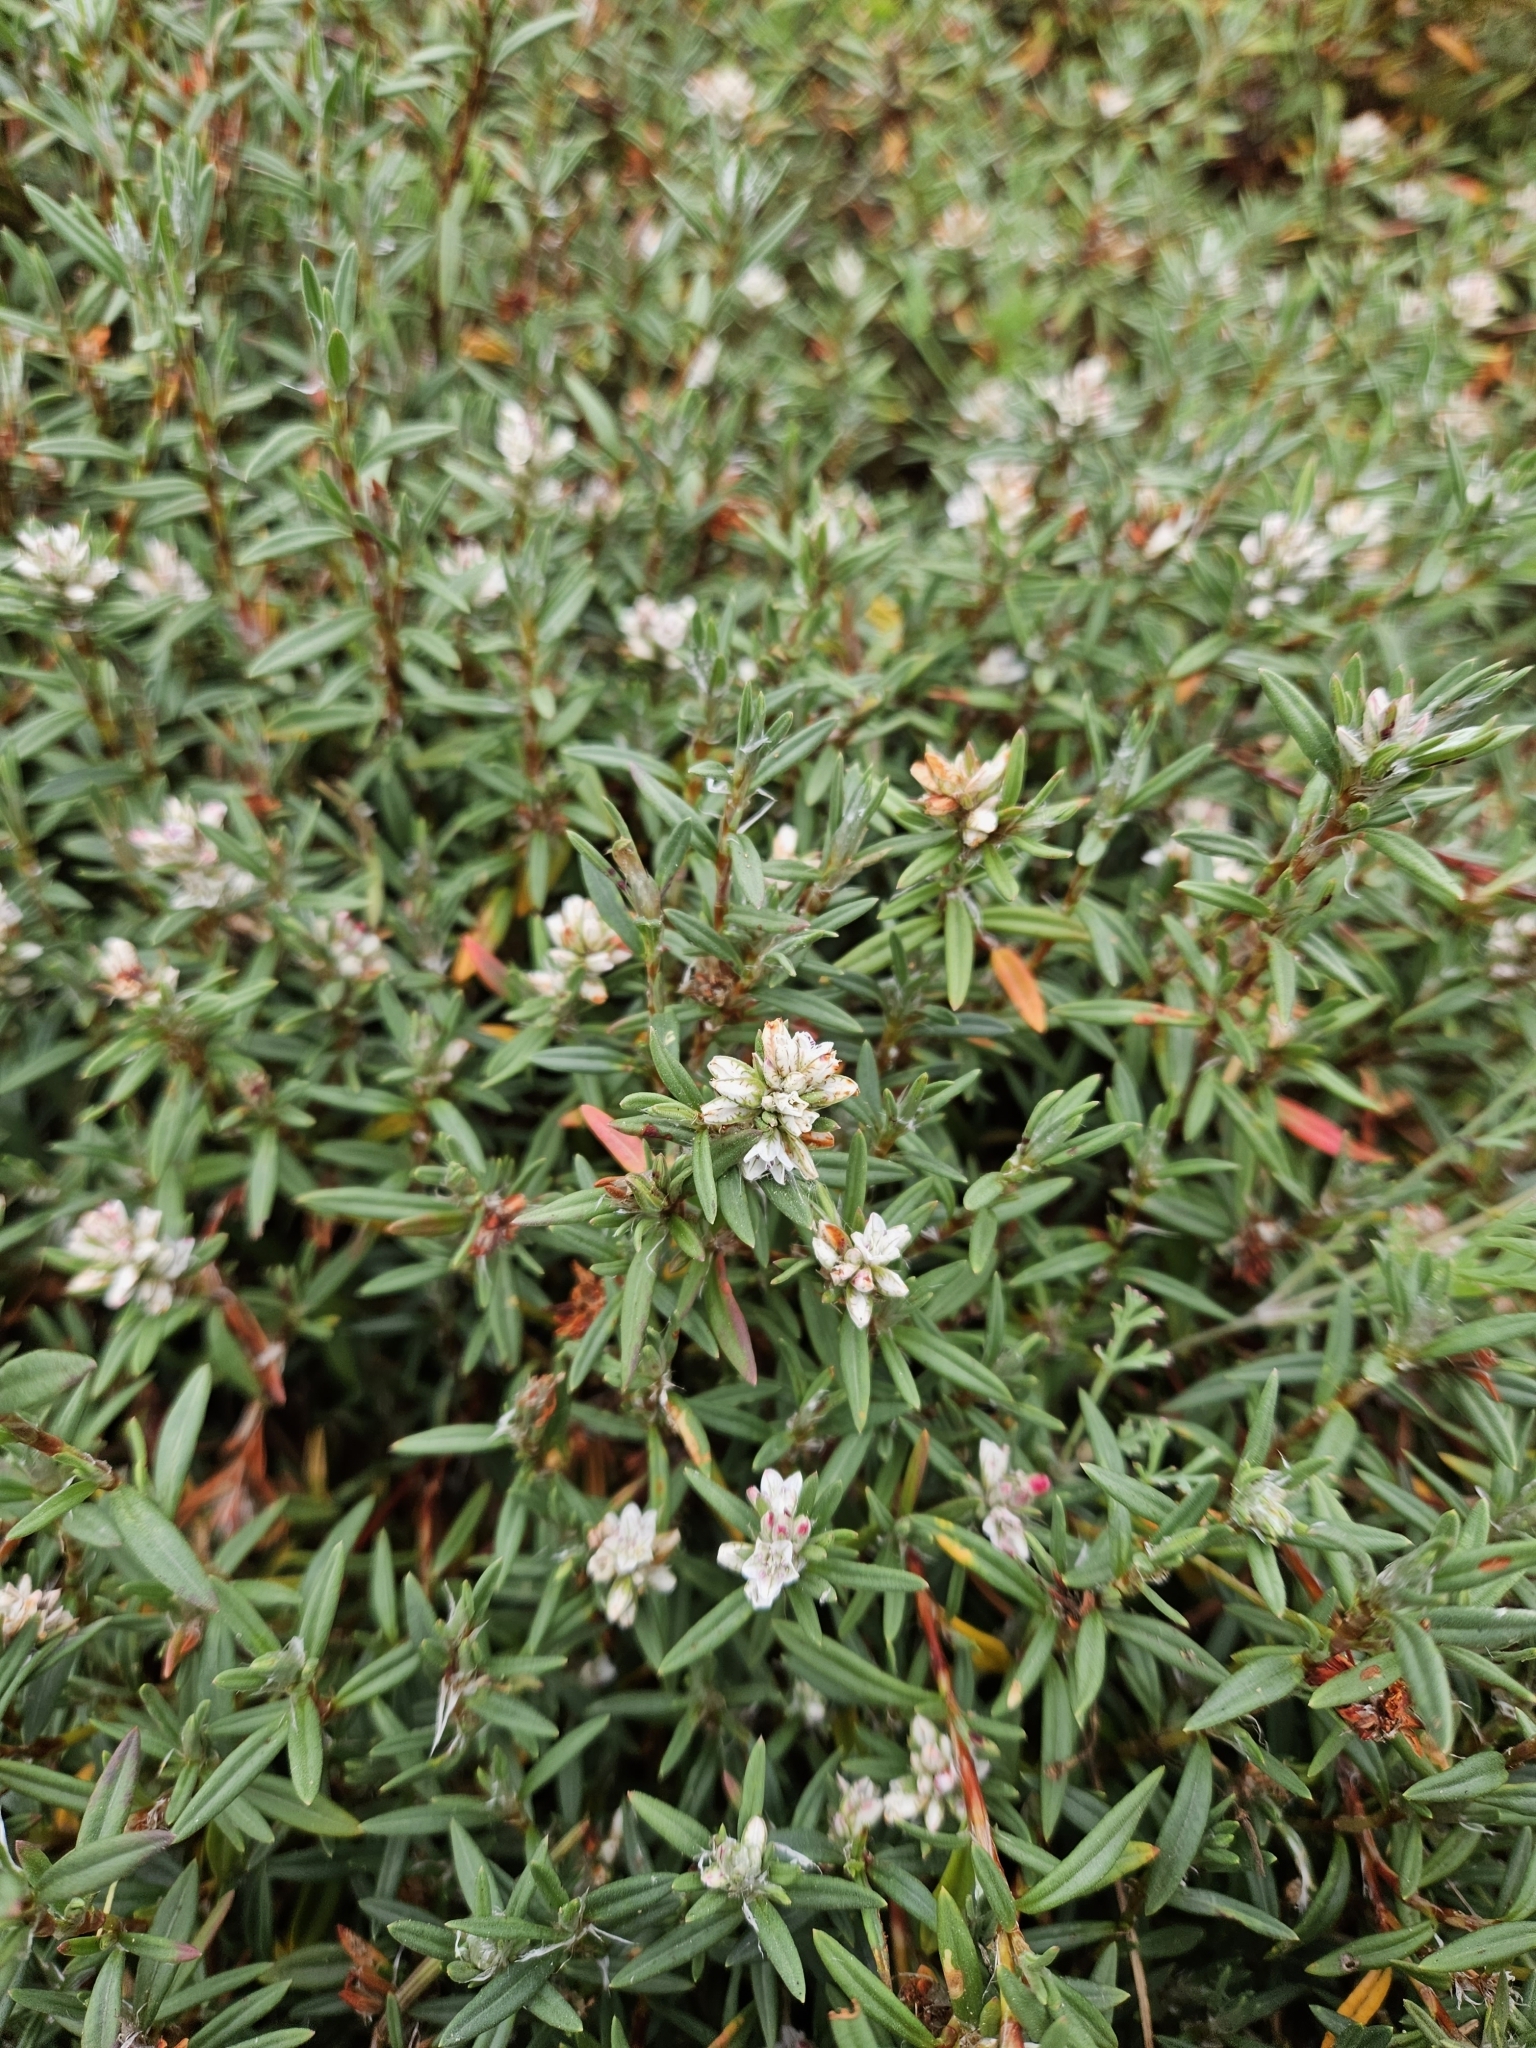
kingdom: Plantae
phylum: Tracheophyta
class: Magnoliopsida
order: Caryophyllales
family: Polygonaceae
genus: Polygonum
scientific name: Polygonum paronychia
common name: Dune knotweed
